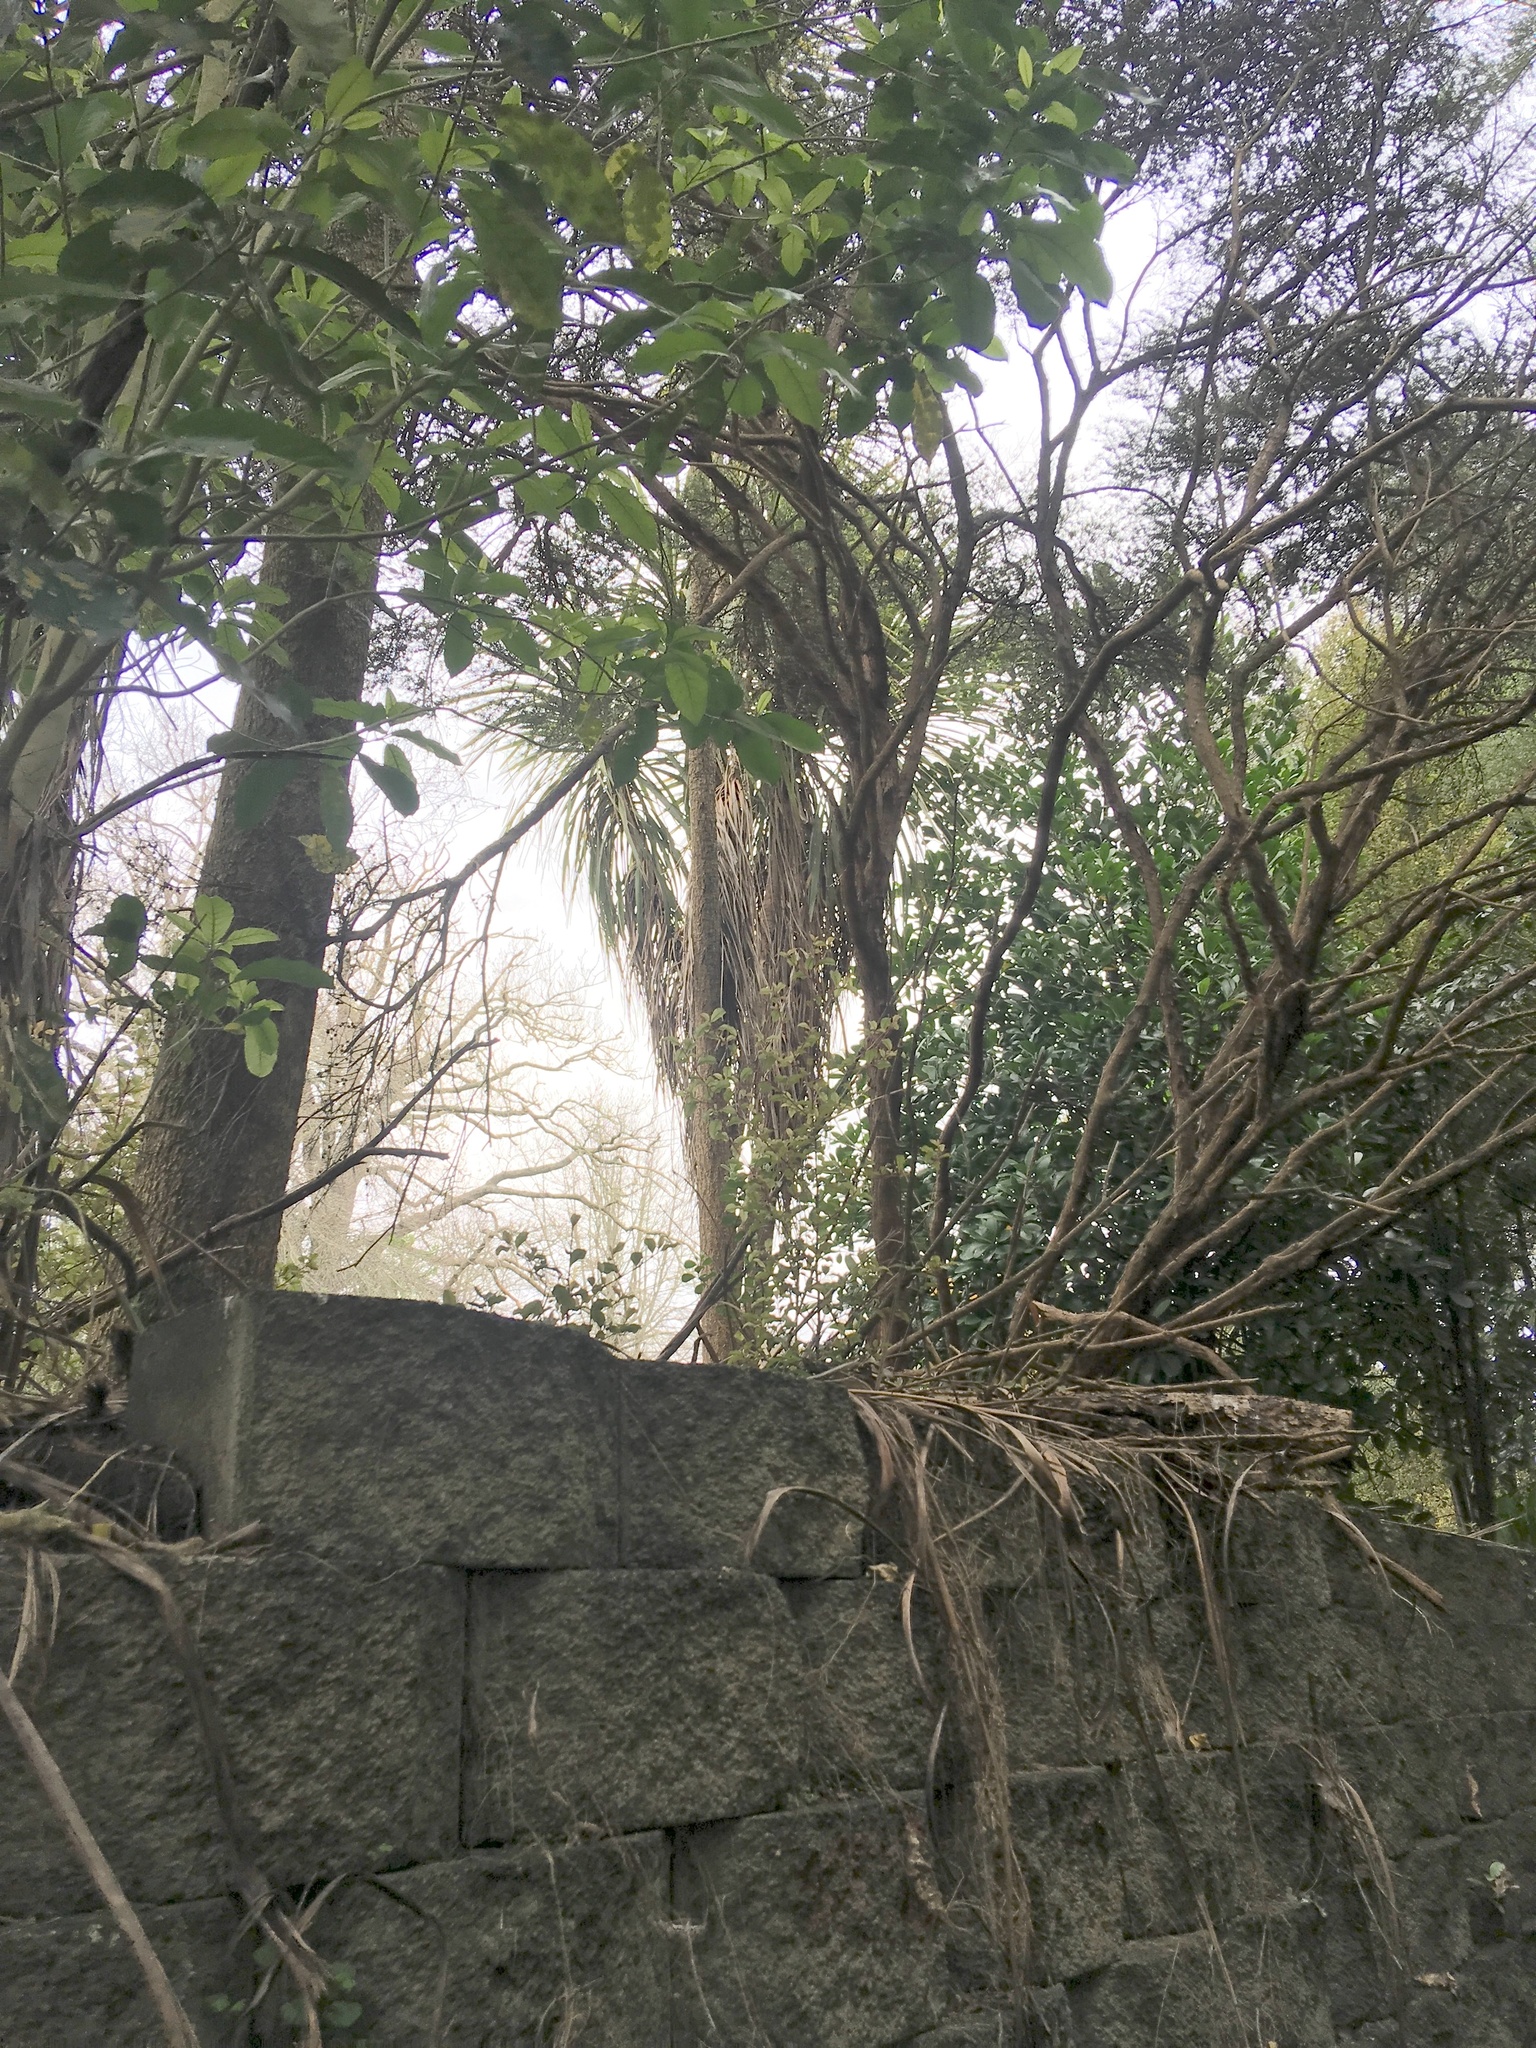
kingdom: Plantae
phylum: Tracheophyta
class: Liliopsida
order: Asparagales
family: Asparagaceae
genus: Cordyline
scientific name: Cordyline australis
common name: Cabbage-palm
